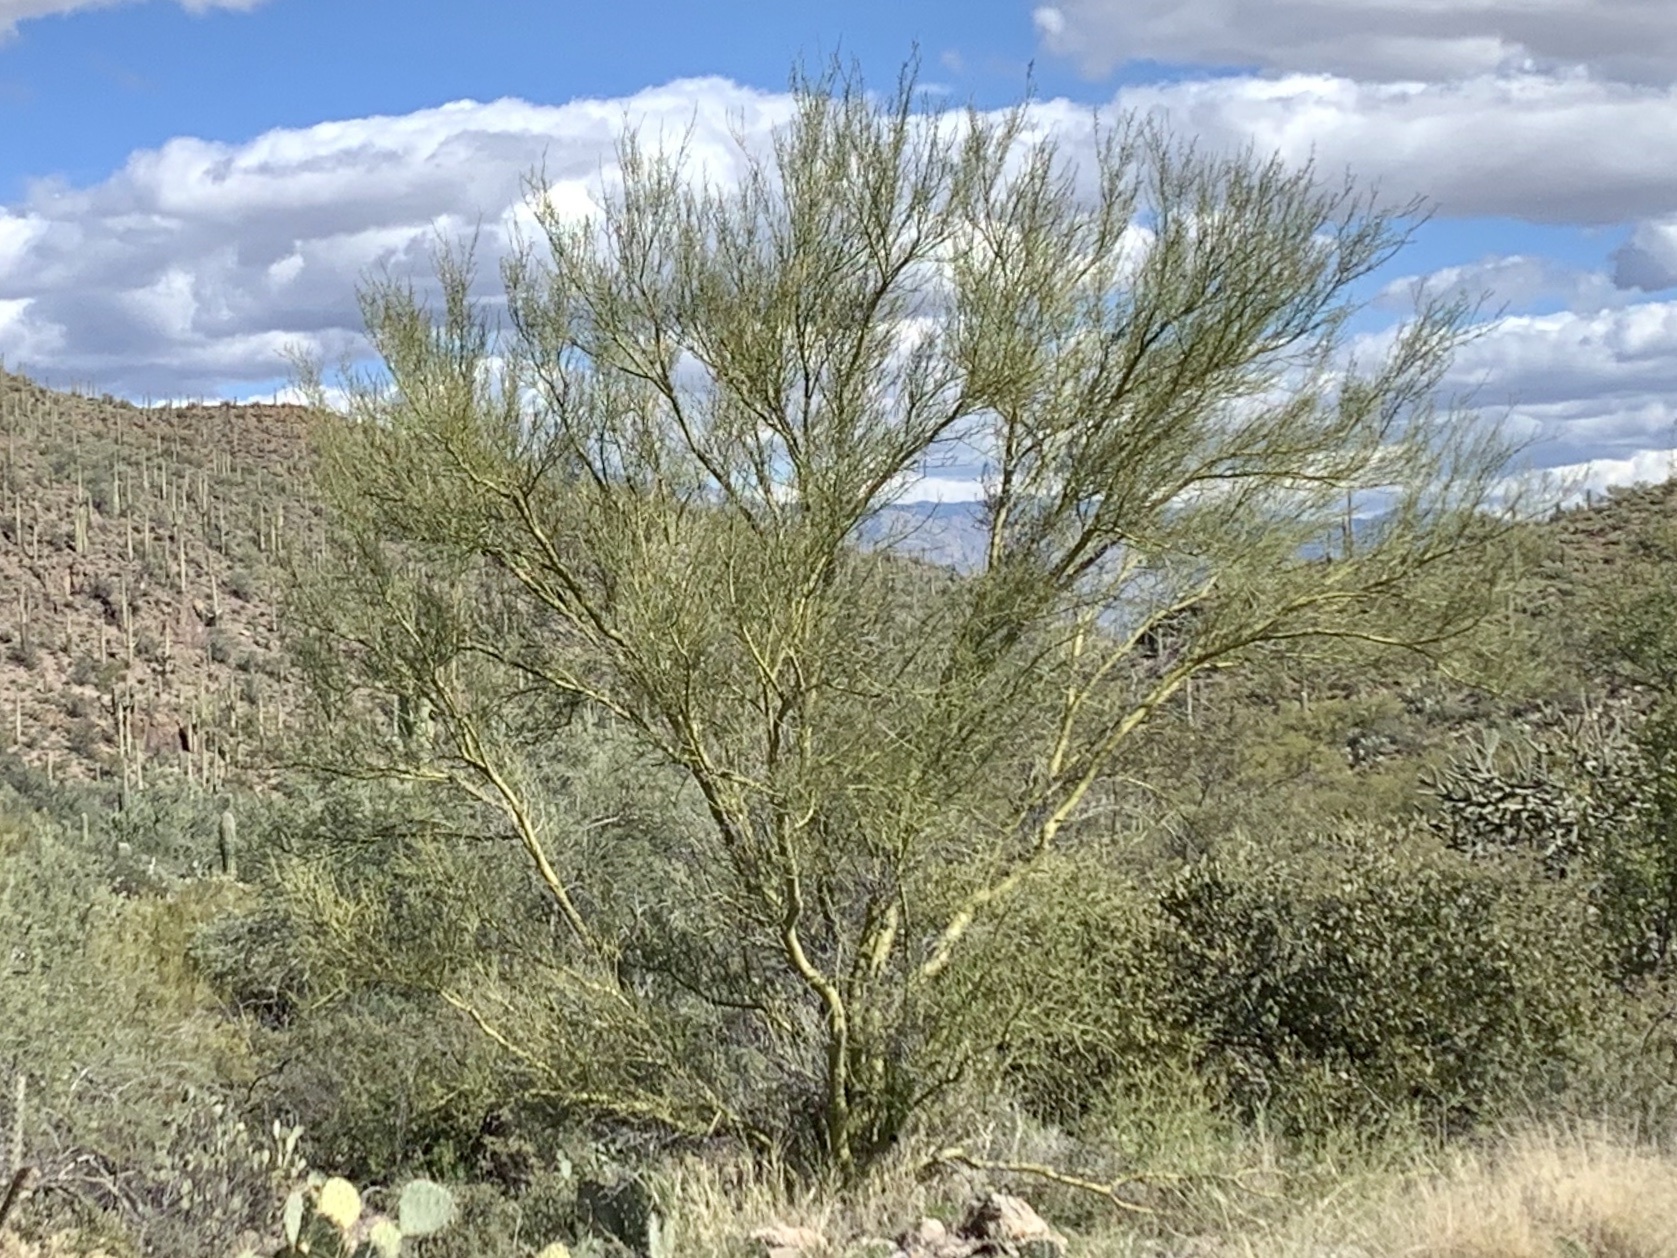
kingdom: Plantae
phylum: Tracheophyta
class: Magnoliopsida
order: Fabales
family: Fabaceae
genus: Parkinsonia
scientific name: Parkinsonia microphylla
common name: Yellow paloverde
